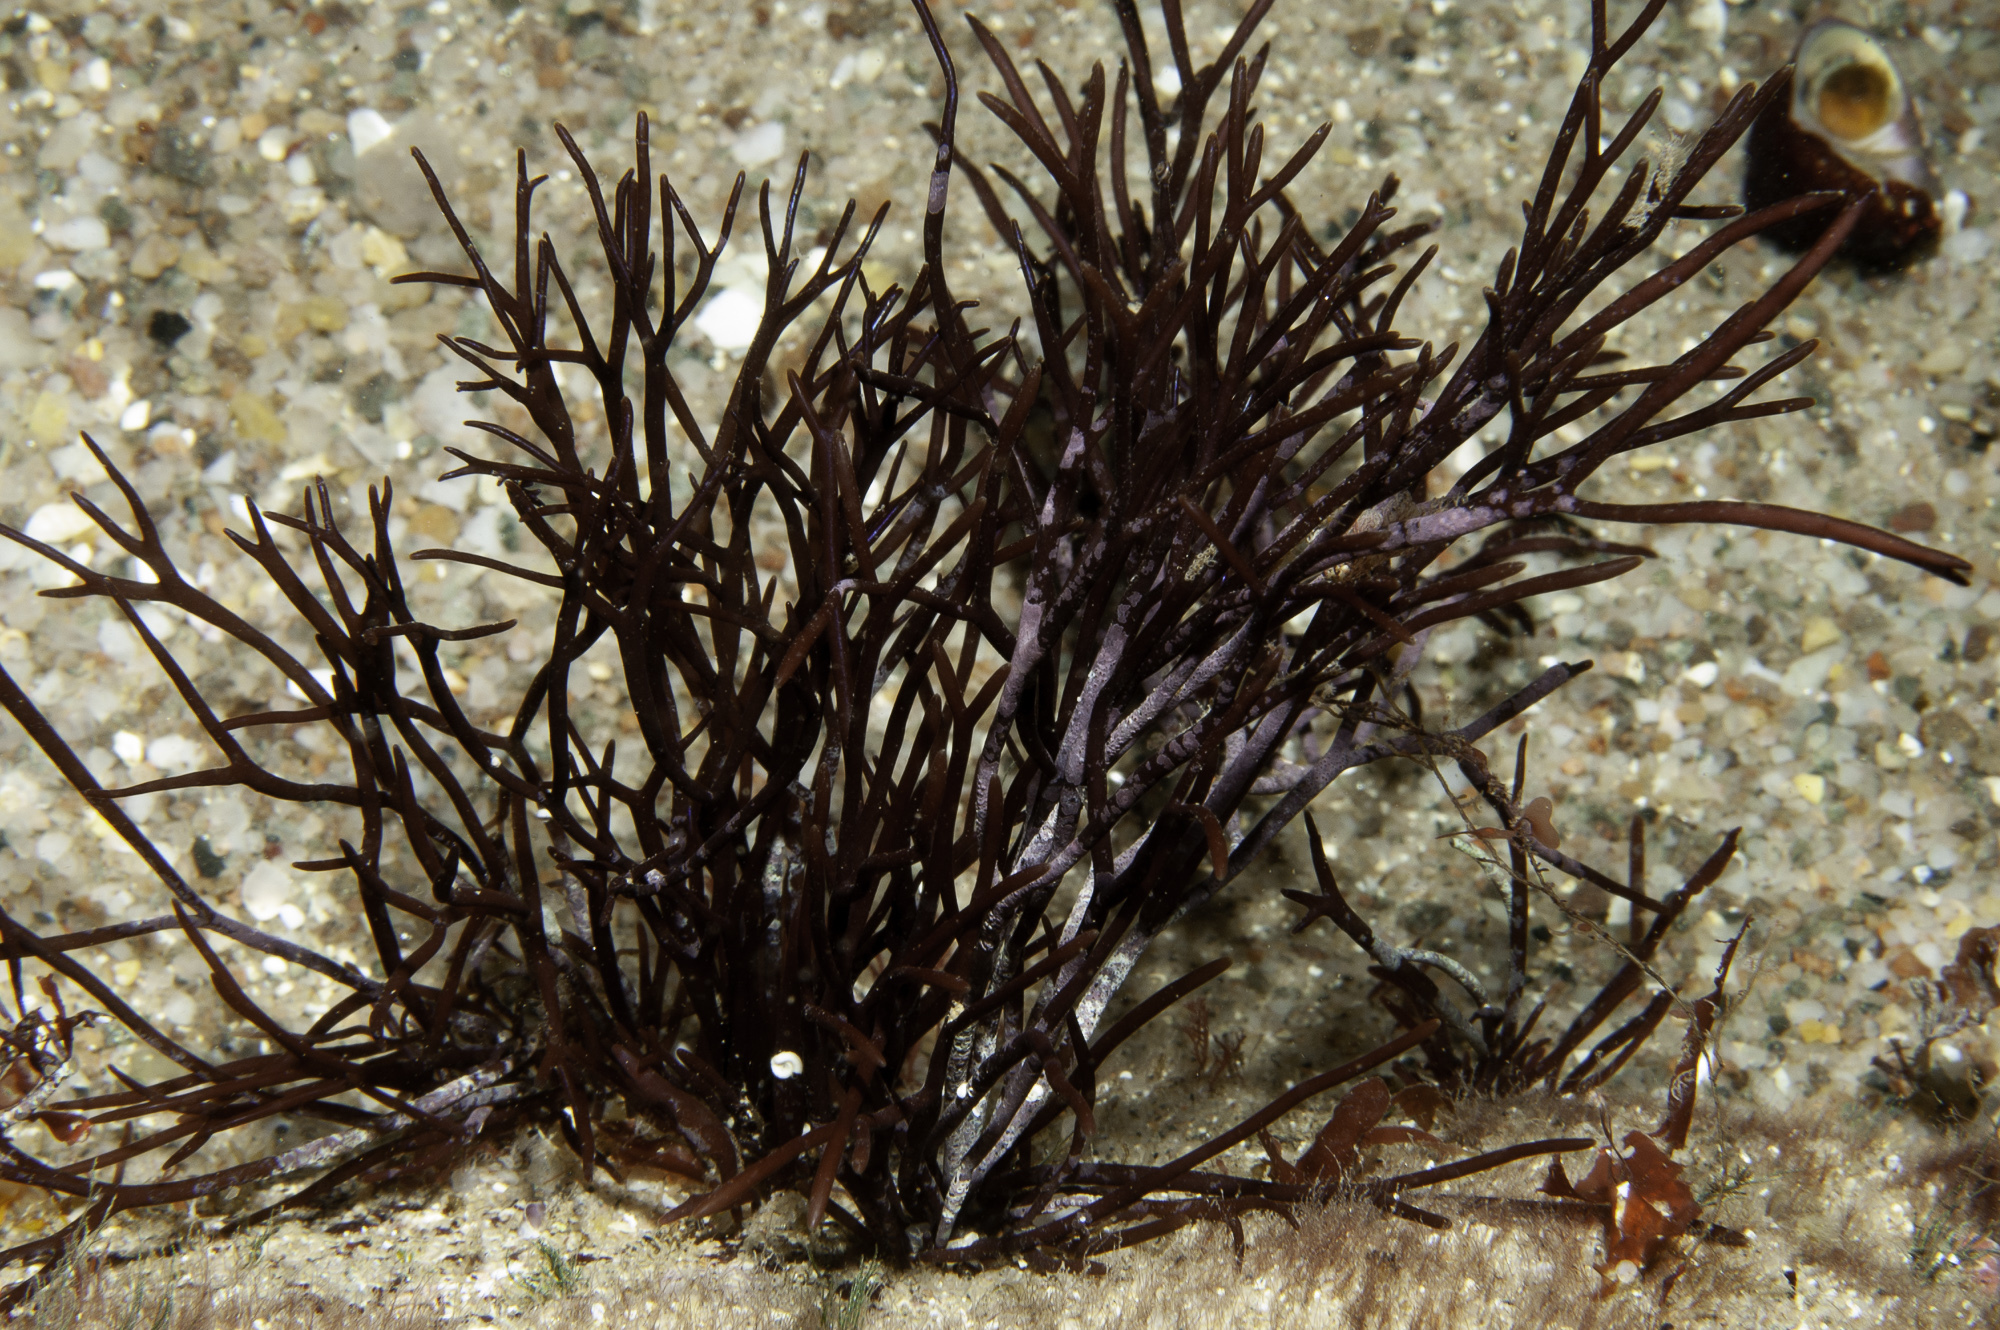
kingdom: Plantae
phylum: Rhodophyta
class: Florideophyceae
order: Gigartinales
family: Polyidaceae
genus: Polyides
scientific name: Polyides rotunda
